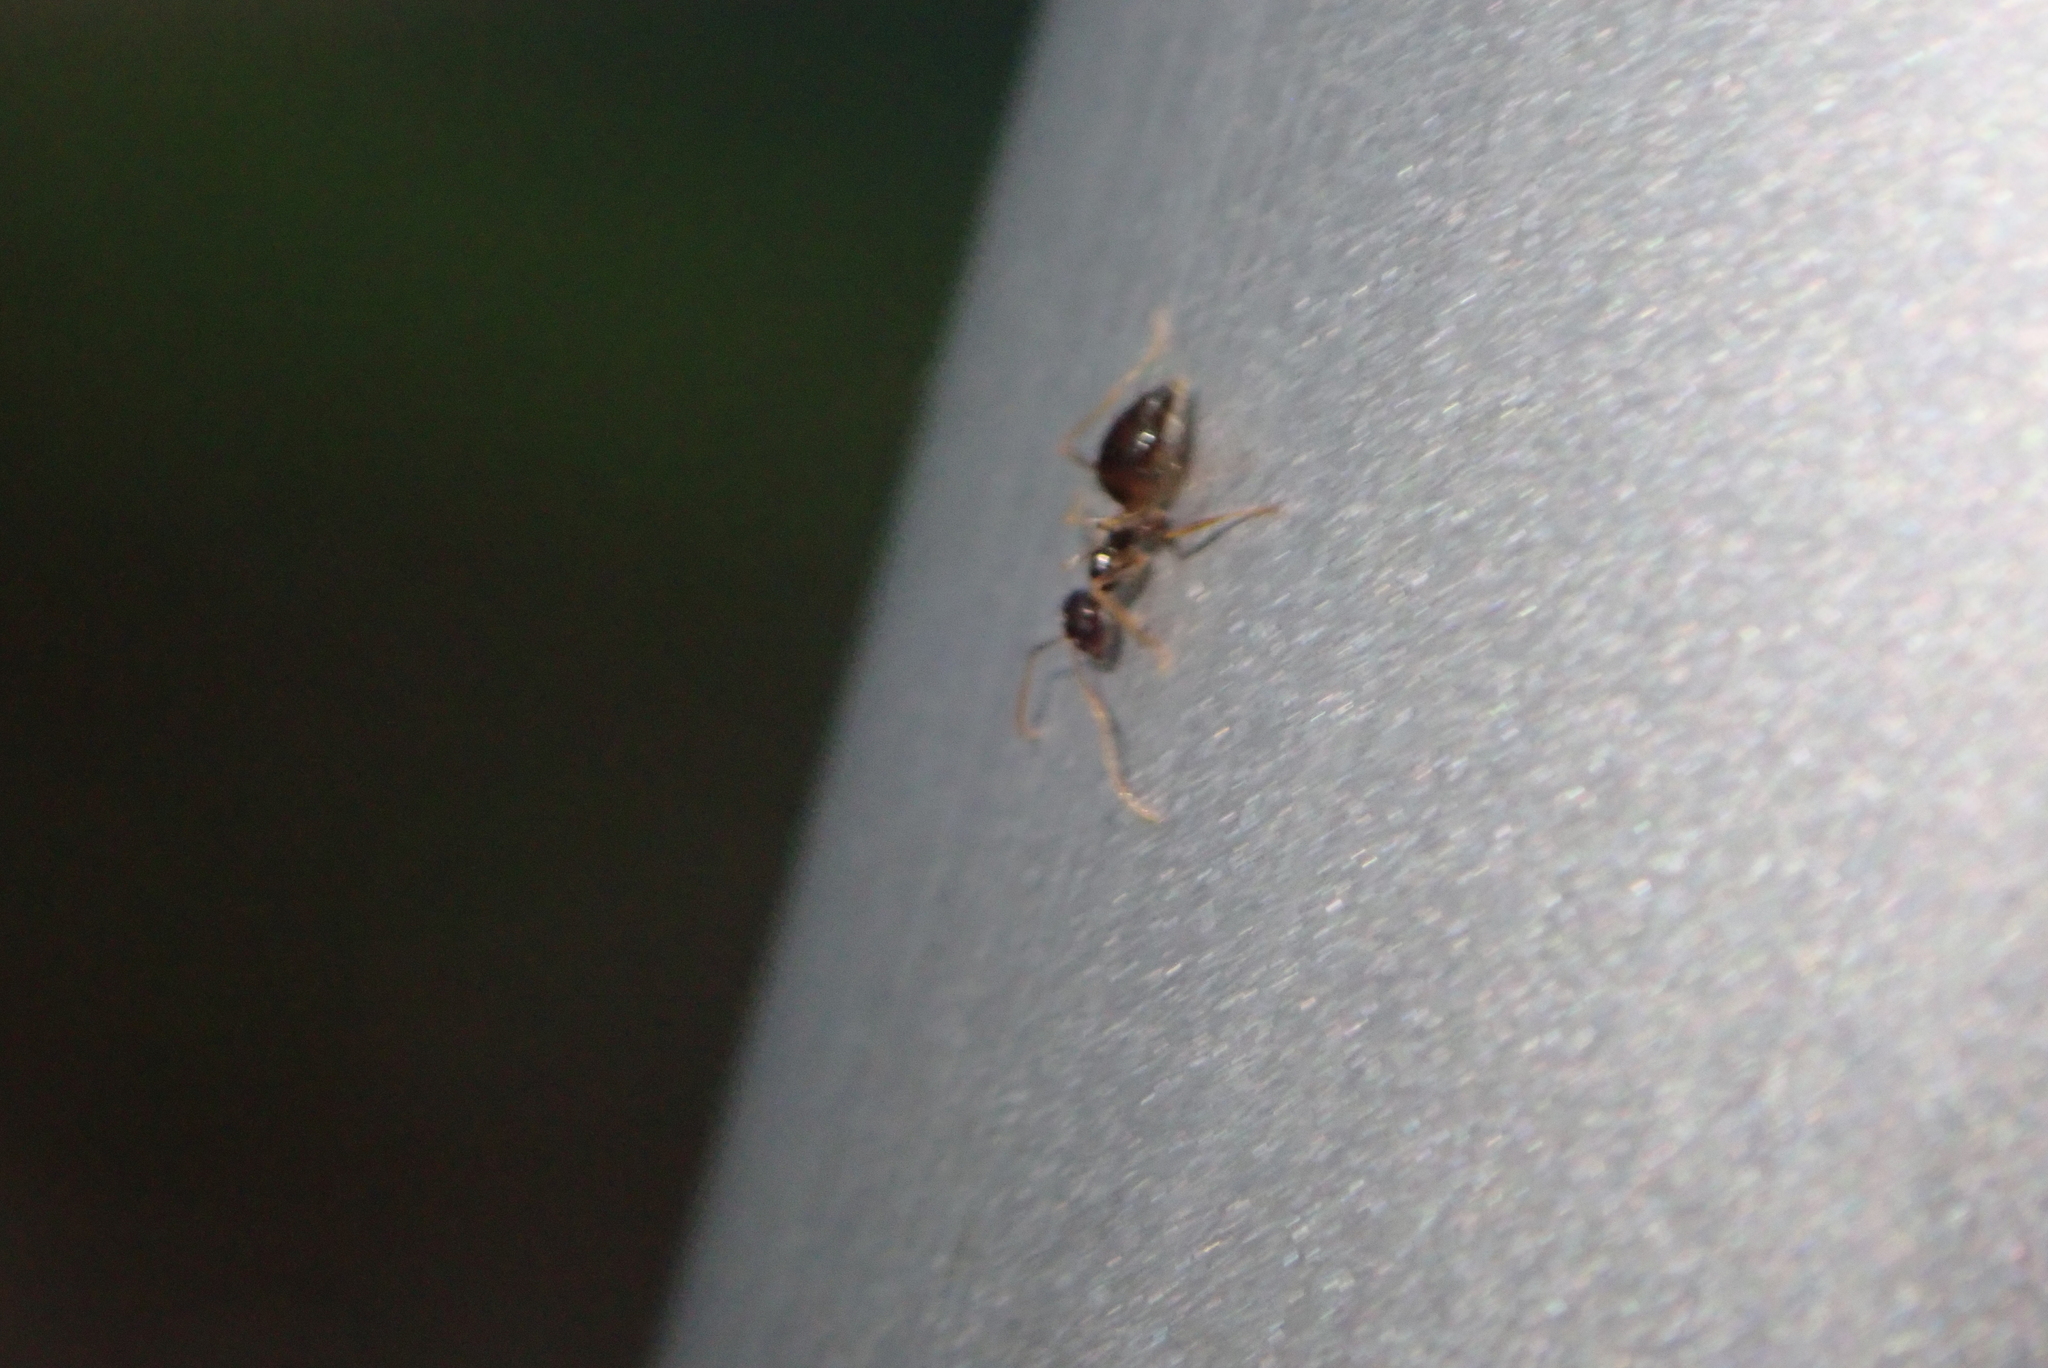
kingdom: Animalia
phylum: Arthropoda
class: Insecta
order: Hymenoptera
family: Formicidae
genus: Prenolepis
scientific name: Prenolepis imparis
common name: Small honey ant
